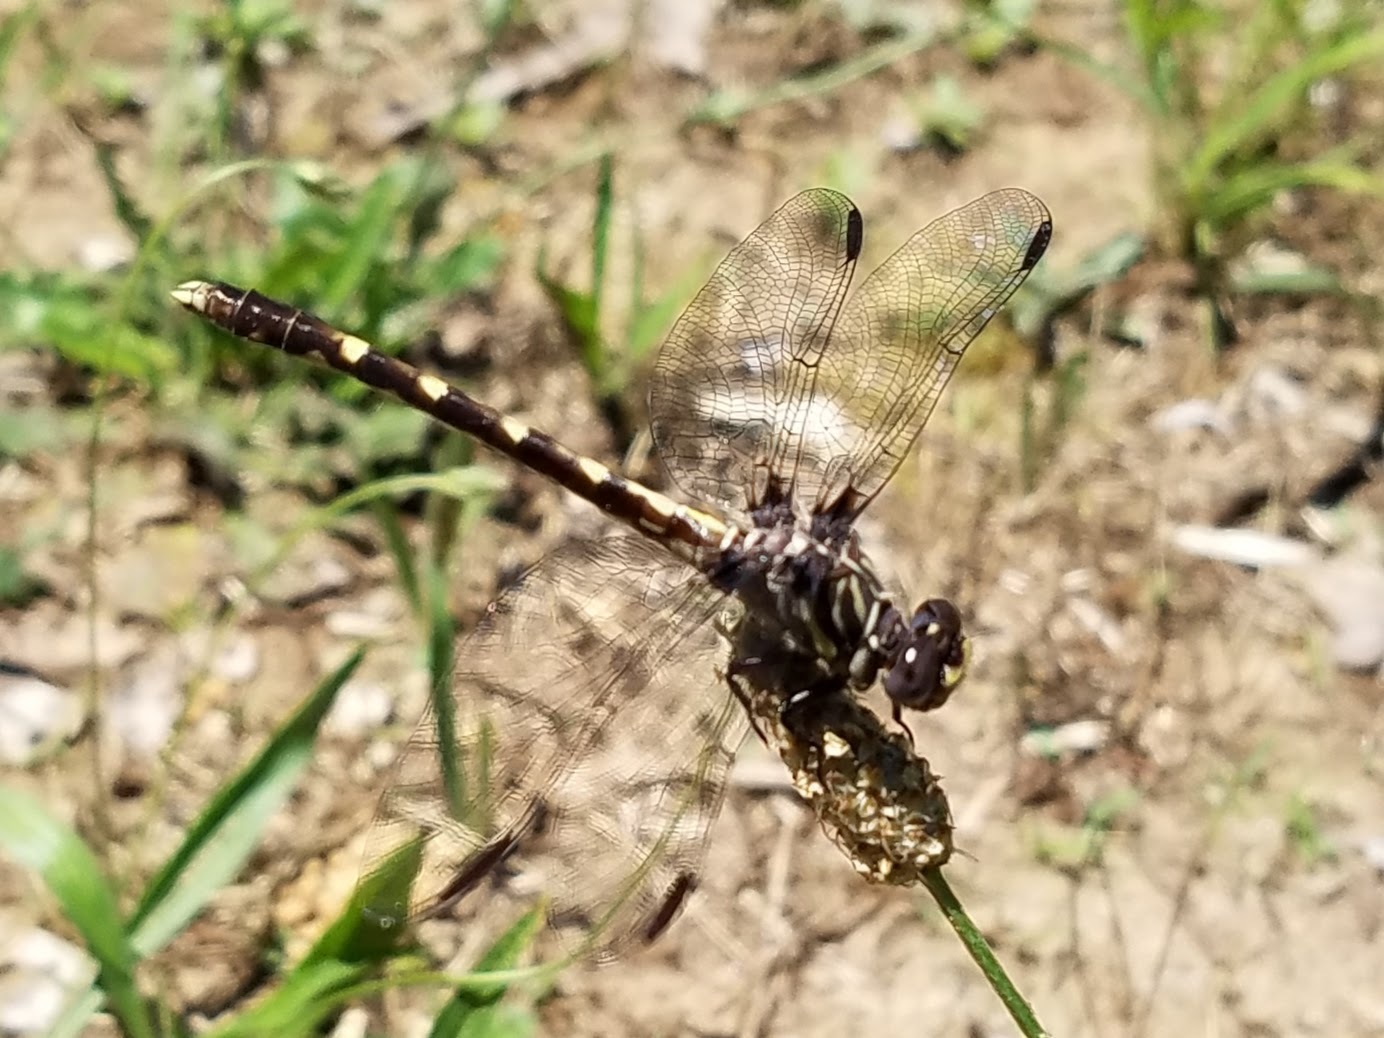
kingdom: Animalia
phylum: Arthropoda
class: Insecta
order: Odonata
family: Gomphidae
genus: Progomphus
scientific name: Progomphus obscurus
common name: Common sanddragon
